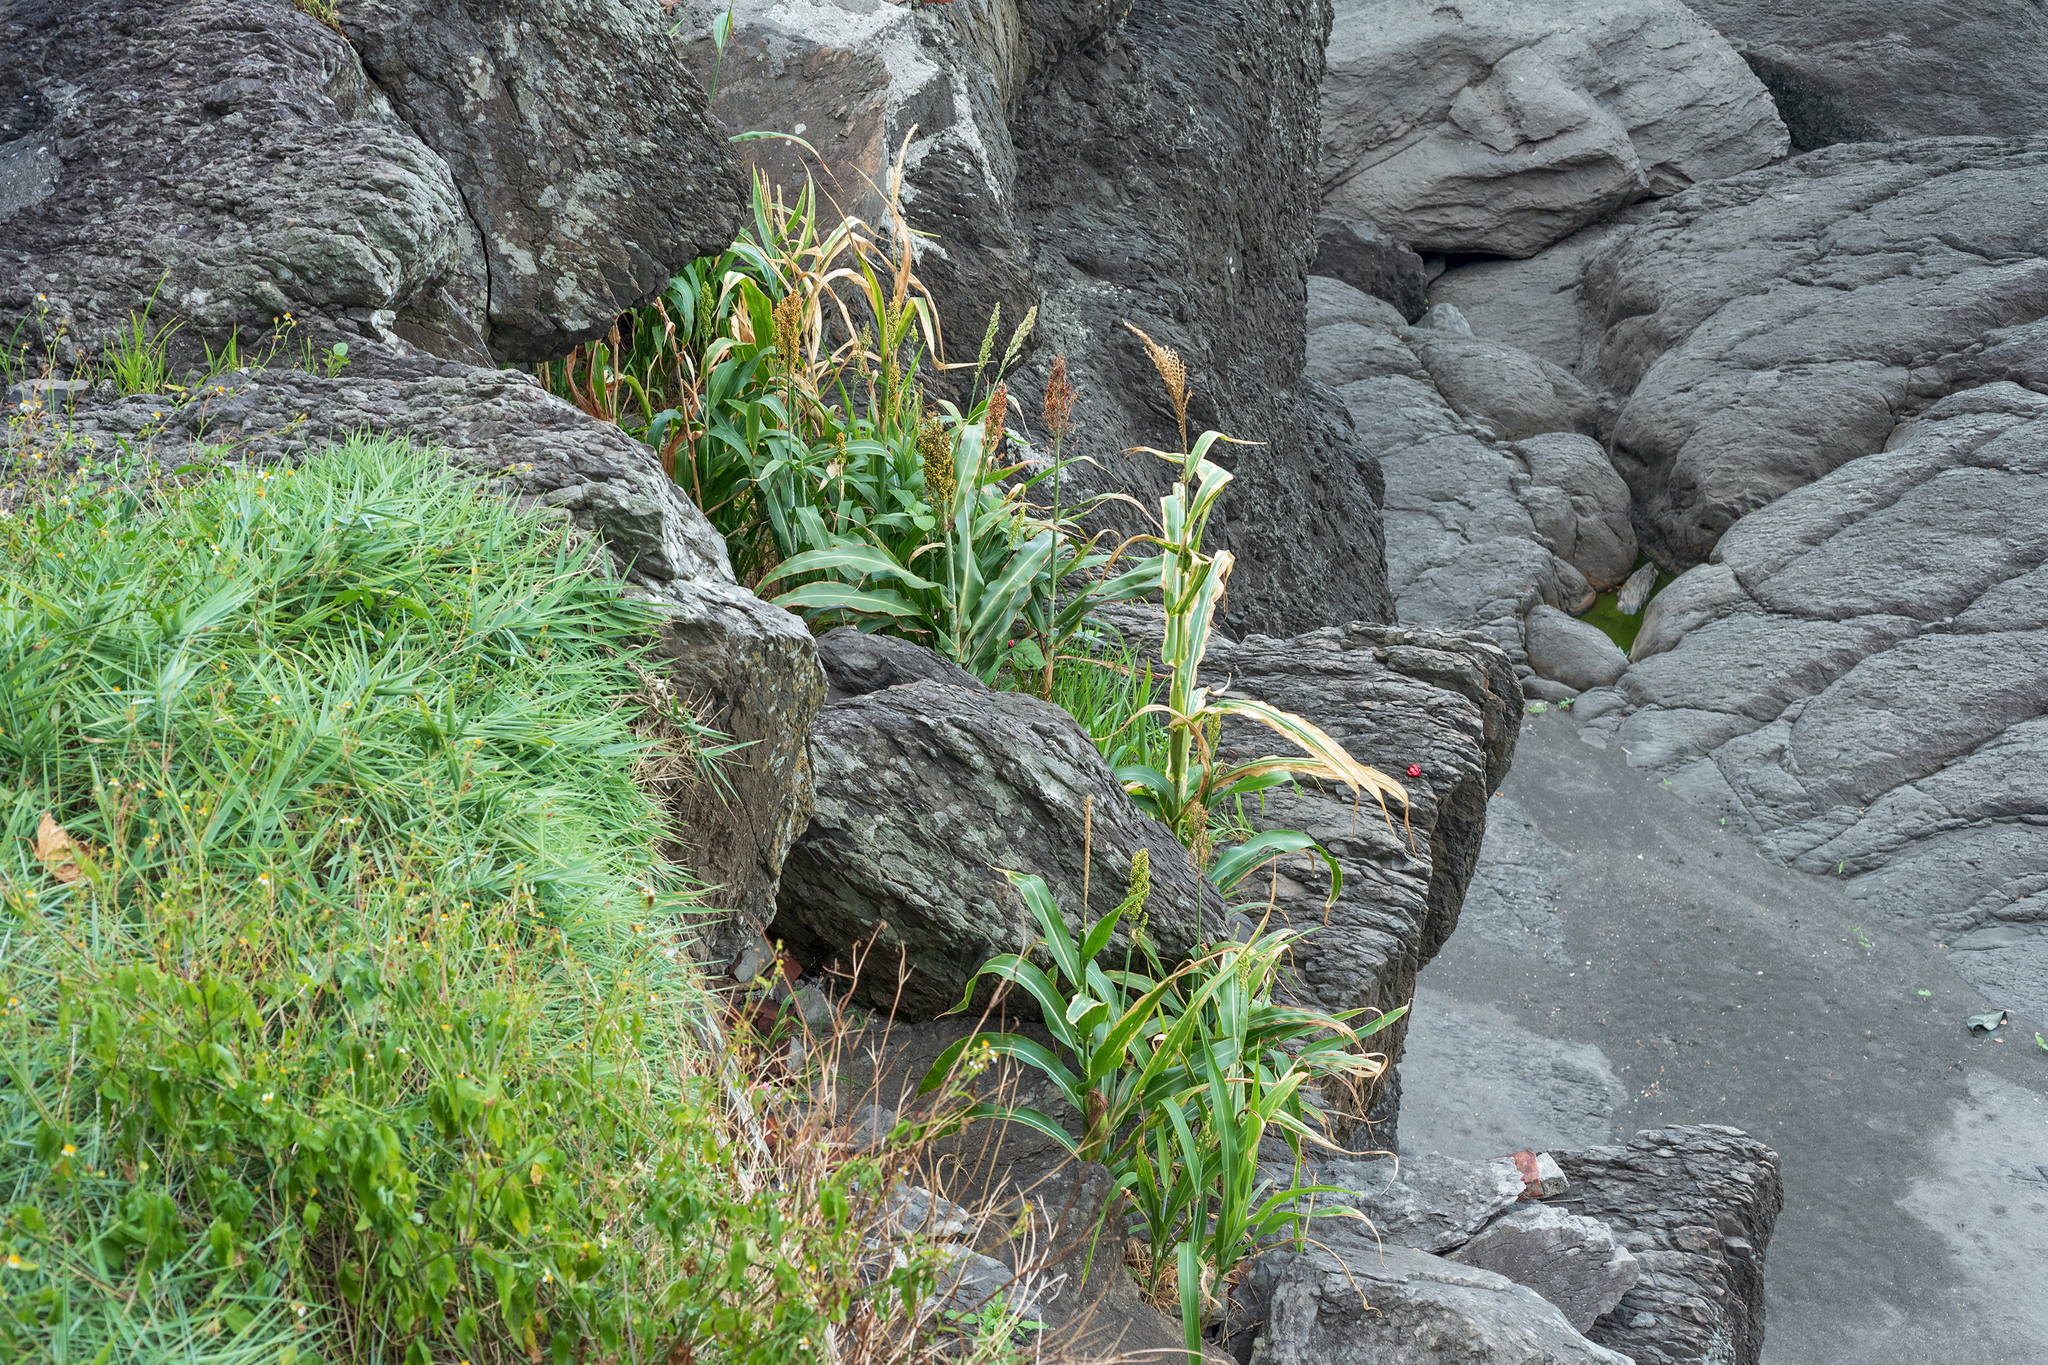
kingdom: Plantae
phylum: Tracheophyta
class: Liliopsida
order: Poales
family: Poaceae
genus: Sorghum
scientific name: Sorghum bicolor
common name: Sorghum
